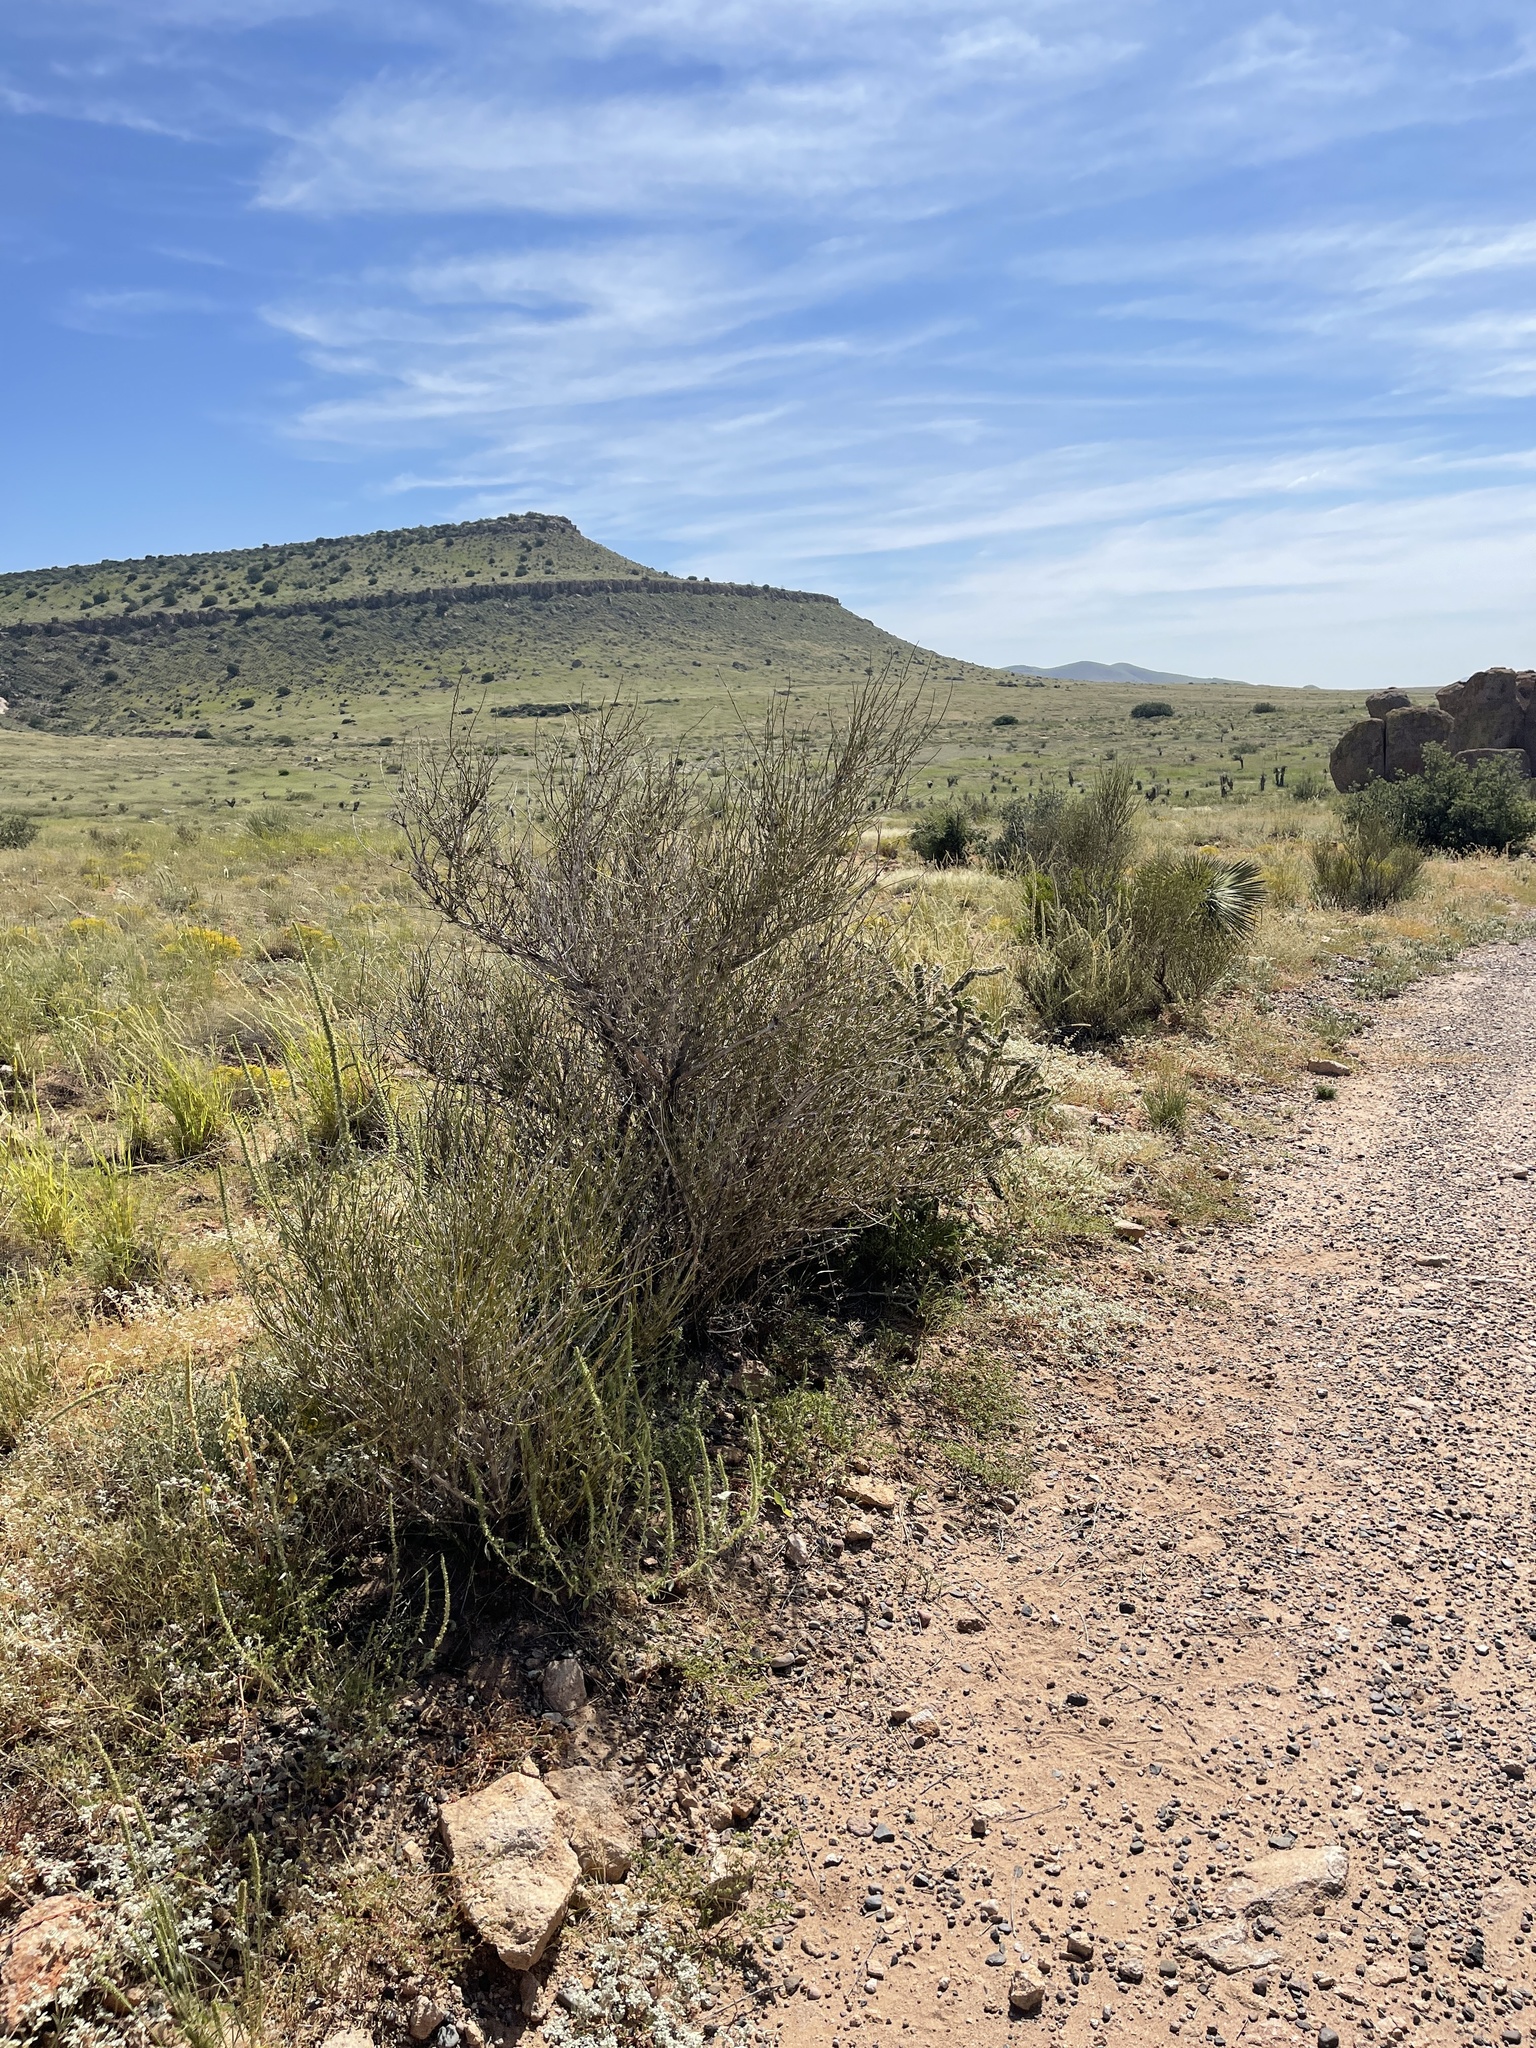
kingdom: Plantae
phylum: Tracheophyta
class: Gnetopsida
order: Ephedrales
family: Ephedraceae
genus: Ephedra
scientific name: Ephedra trifurca
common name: Mexican-tea
